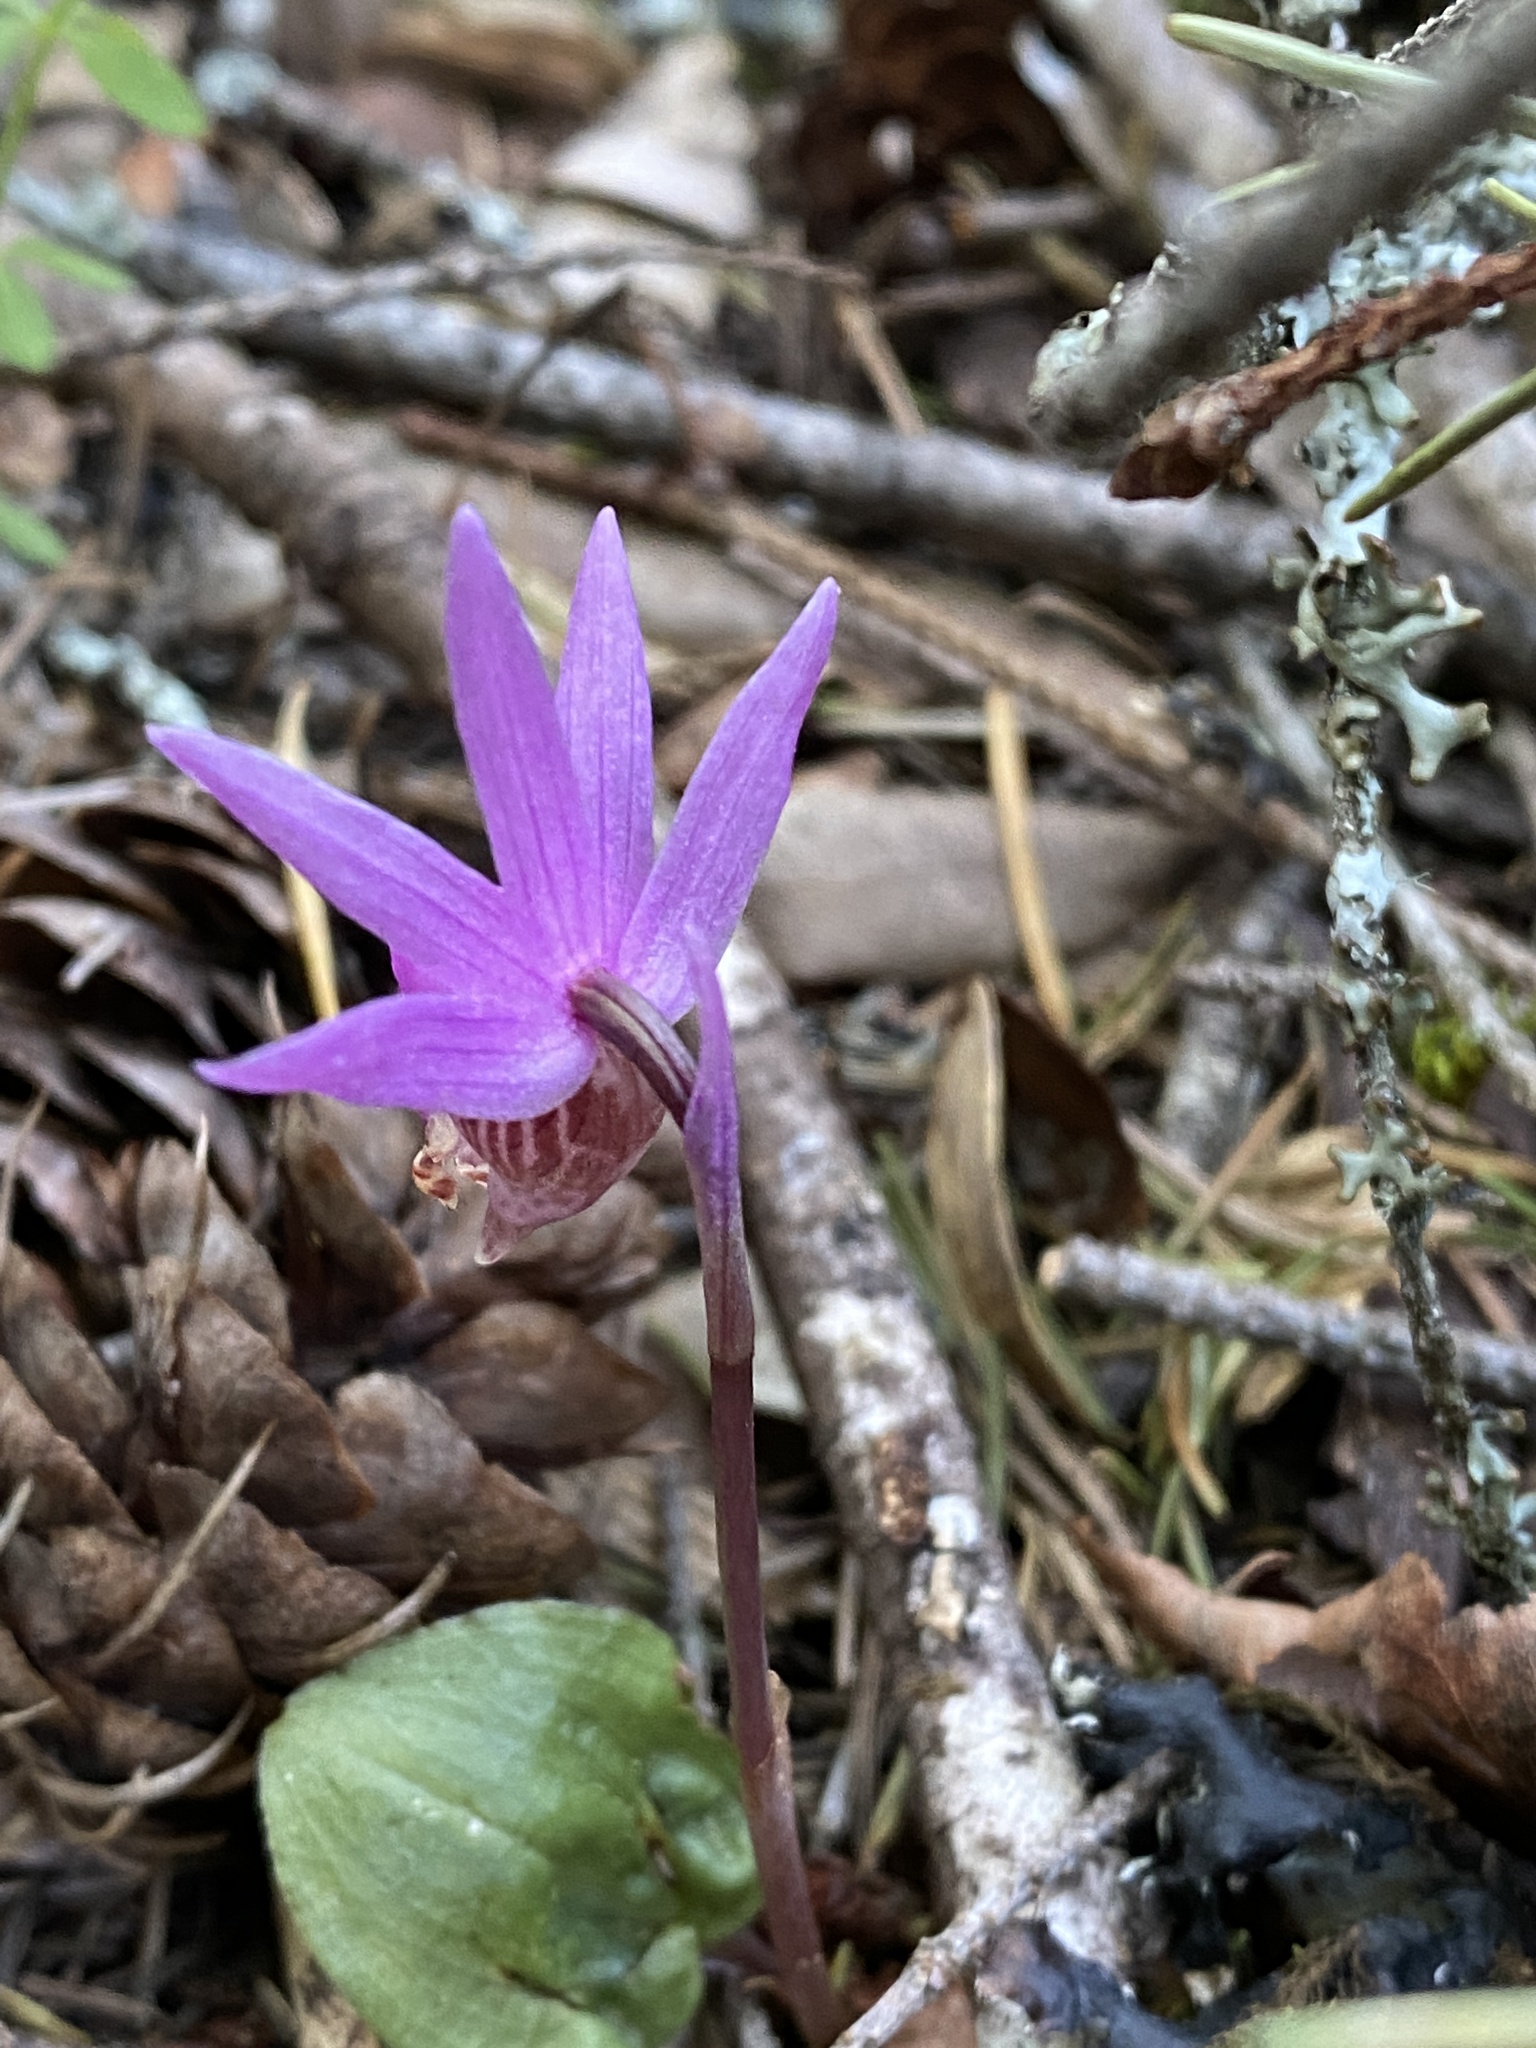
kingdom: Plantae
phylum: Tracheophyta
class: Liliopsida
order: Asparagales
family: Orchidaceae
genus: Calypso
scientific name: Calypso bulbosa
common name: Calypso
